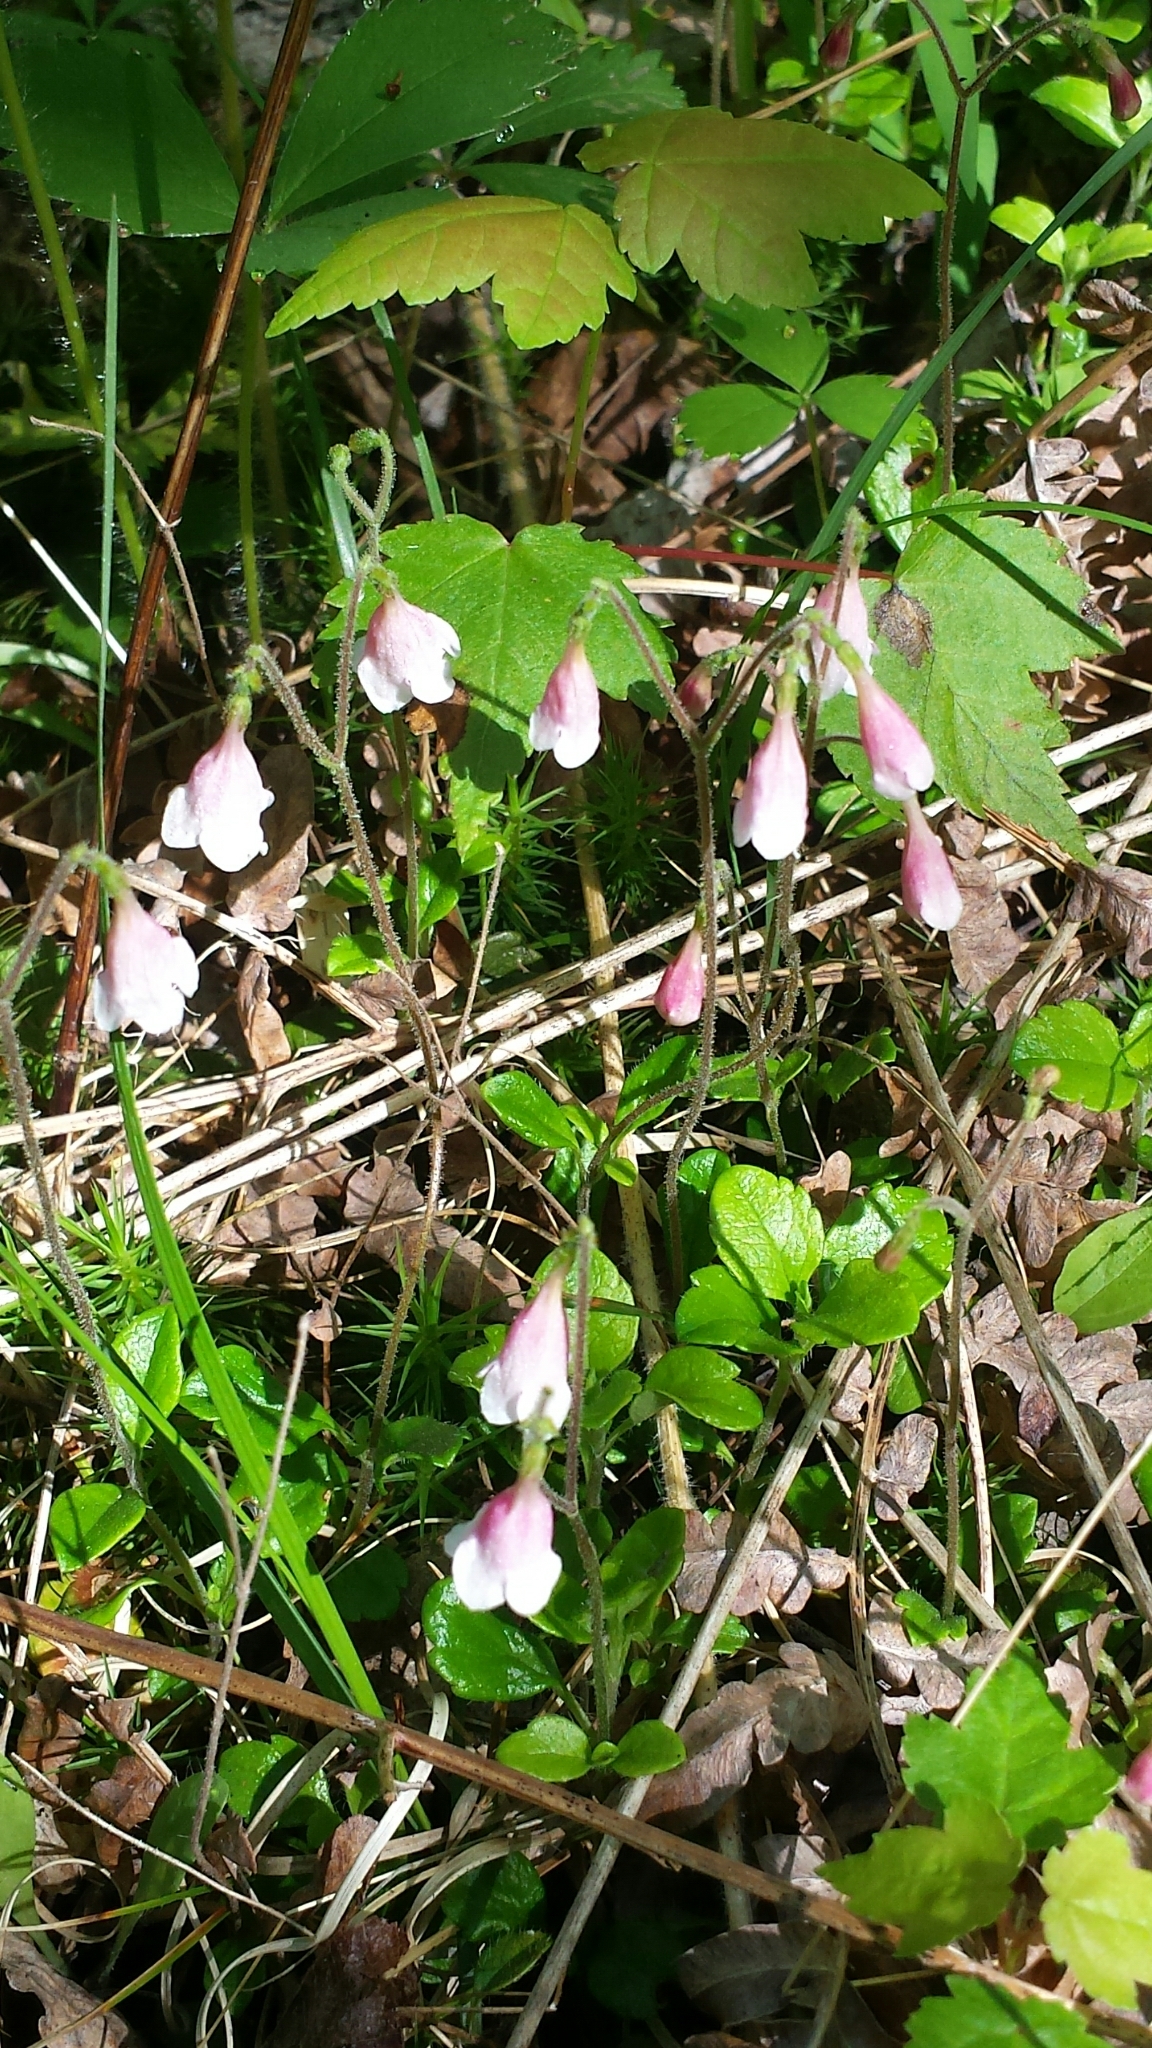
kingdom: Plantae
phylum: Tracheophyta
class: Magnoliopsida
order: Dipsacales
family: Caprifoliaceae
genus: Linnaea
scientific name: Linnaea borealis
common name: Twinflower
